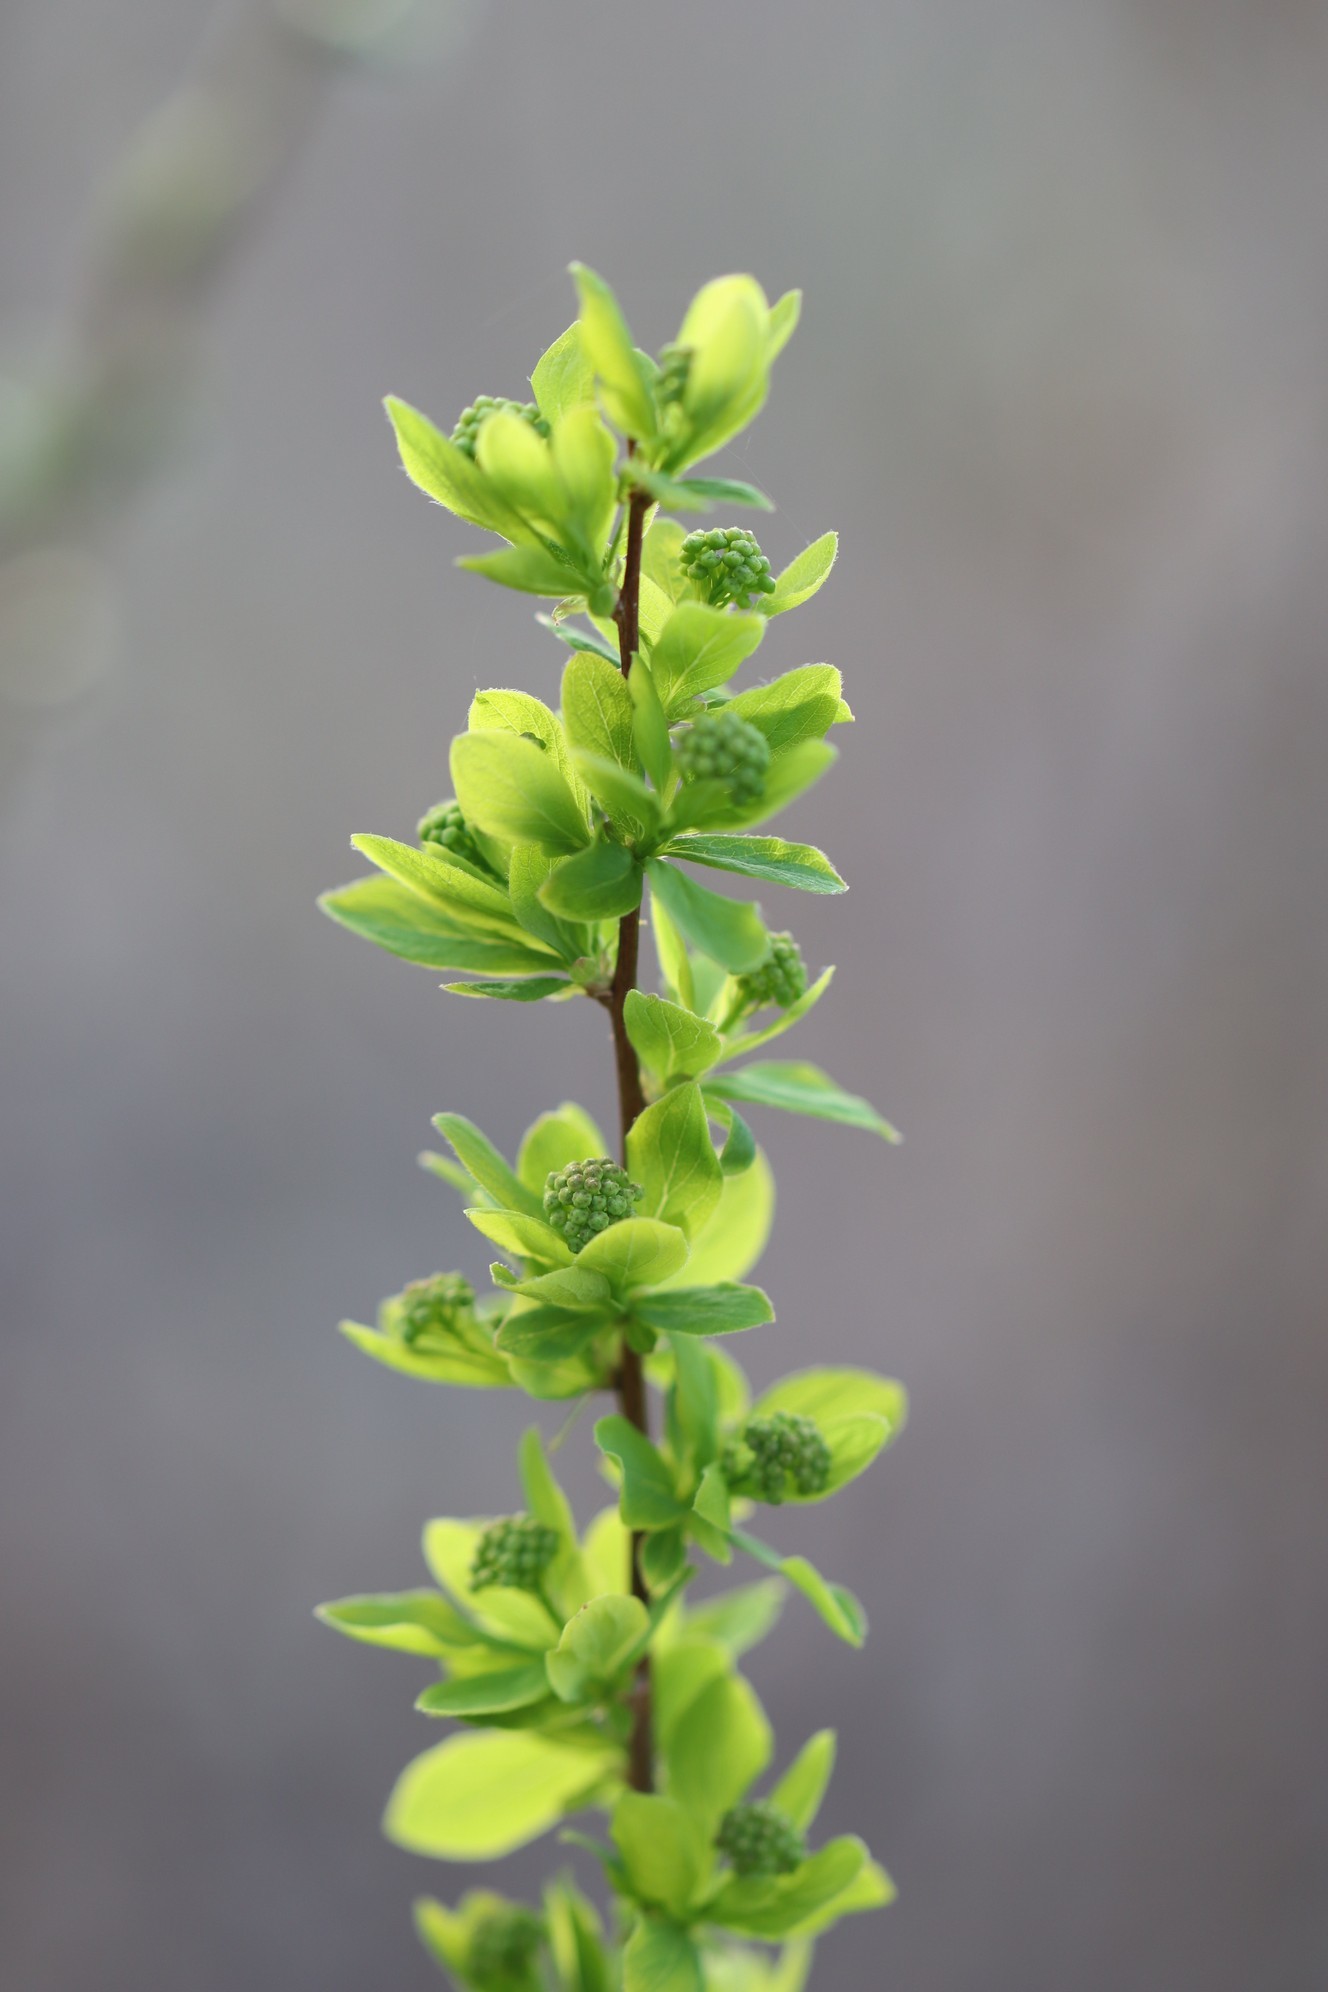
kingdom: Plantae
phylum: Tracheophyta
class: Magnoliopsida
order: Fabales
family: Fabaceae
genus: Caragana
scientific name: Caragana arborescens
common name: Siberian peashrub
